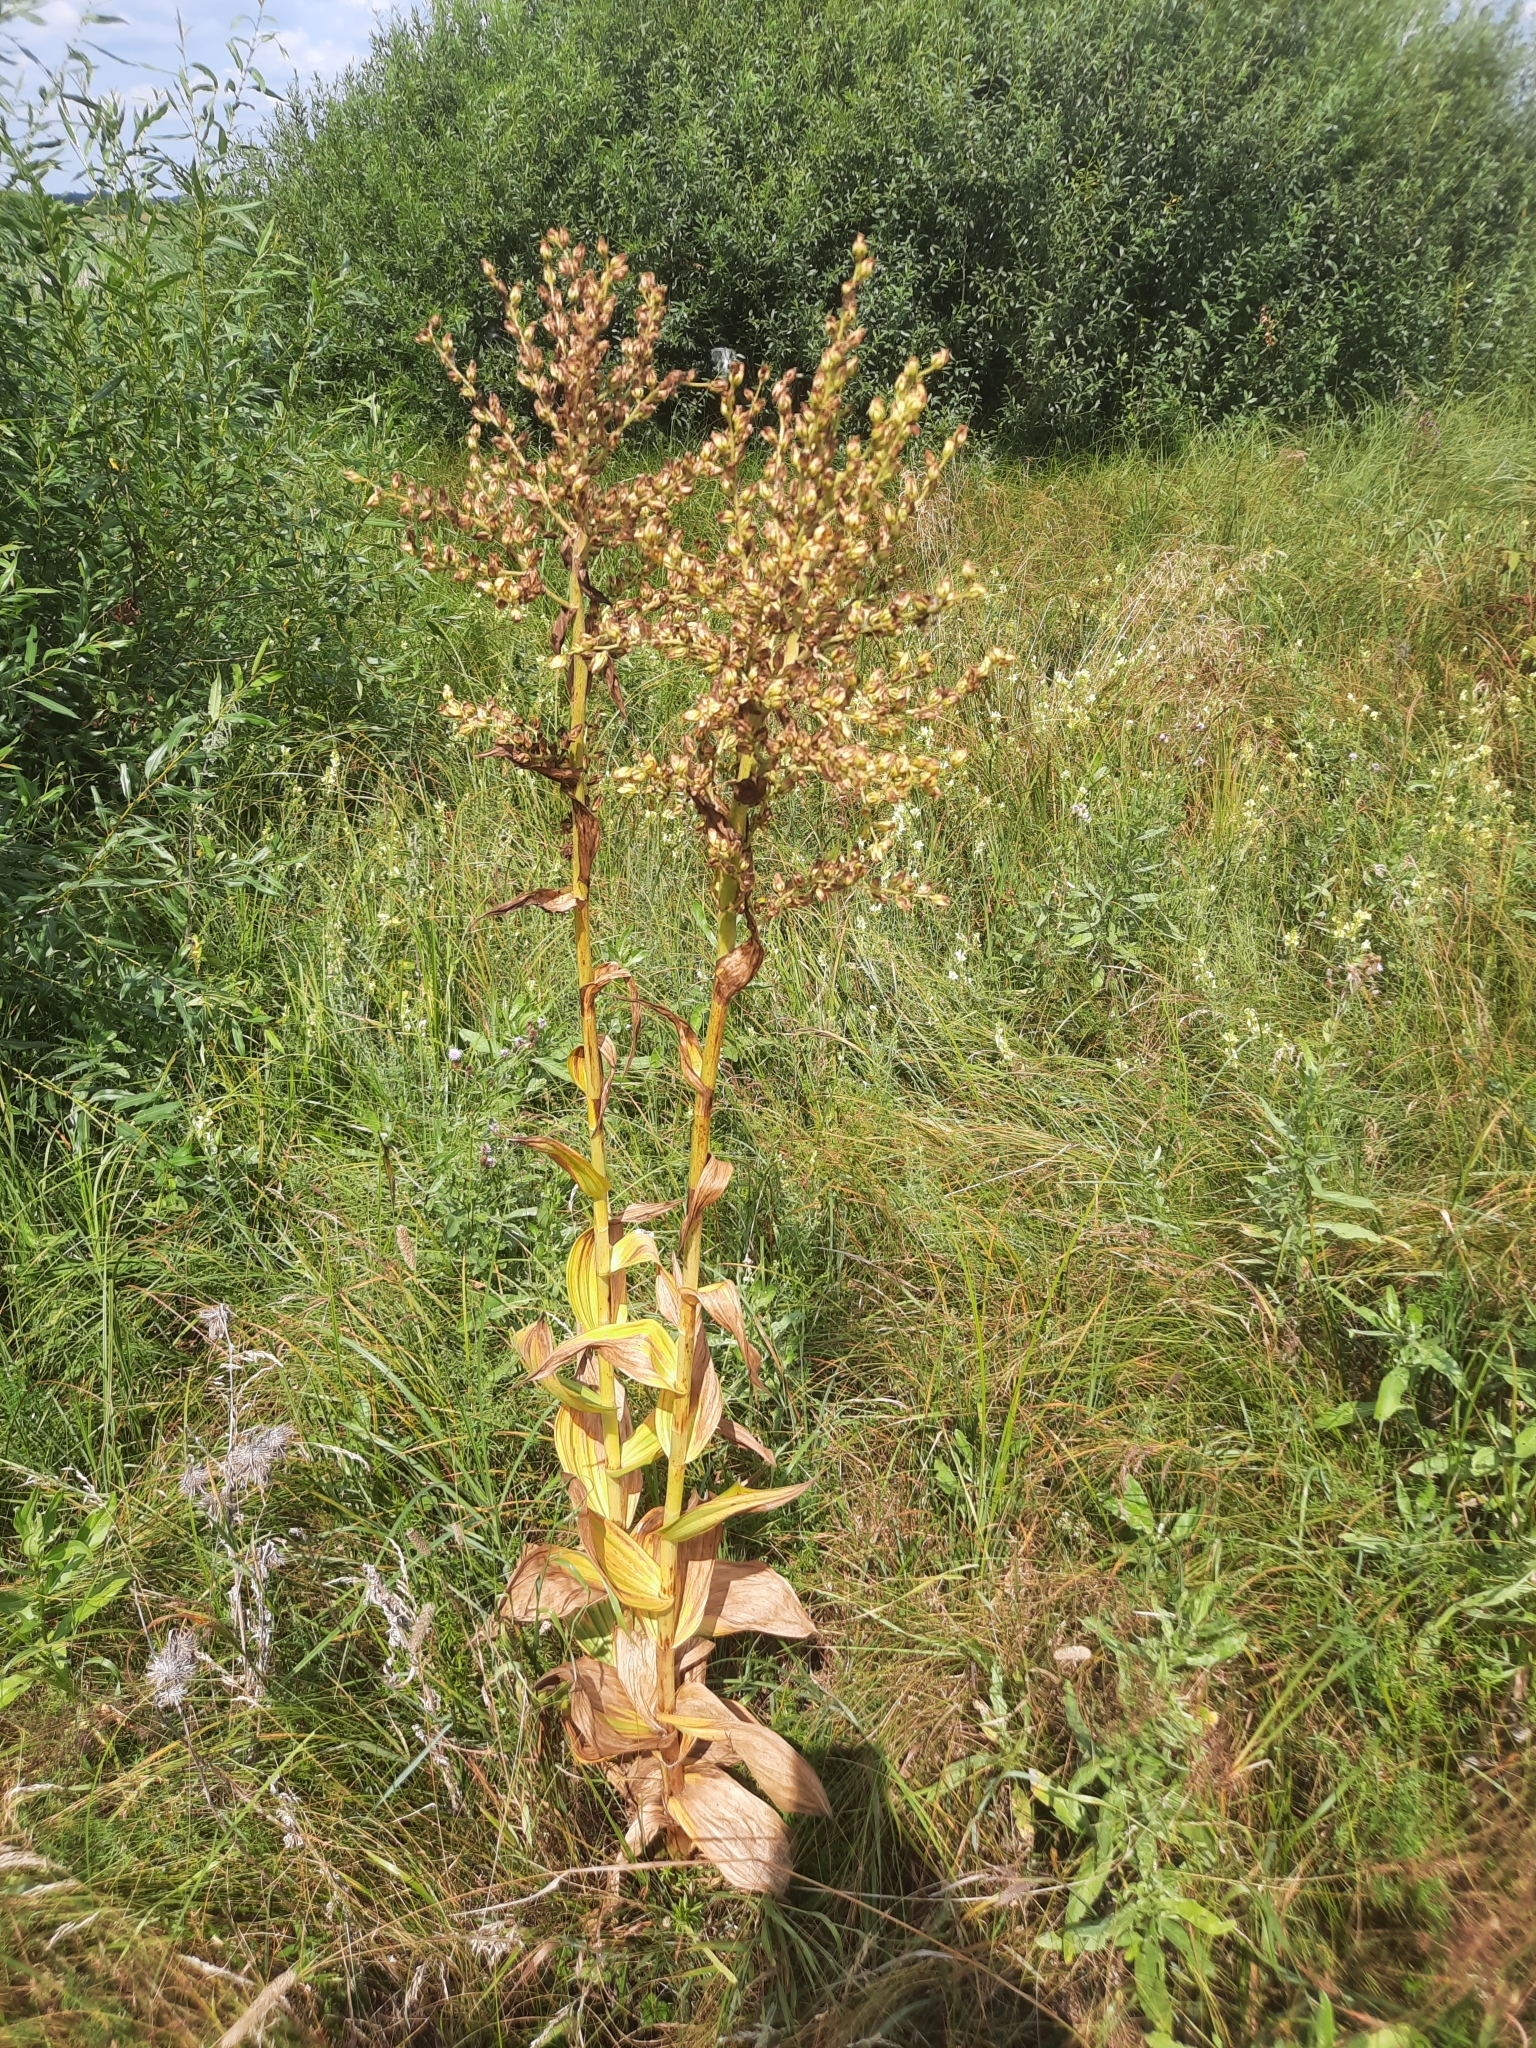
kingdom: Plantae
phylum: Tracheophyta
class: Liliopsida
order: Liliales
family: Melanthiaceae
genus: Veratrum
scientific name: Veratrum lobelianum
